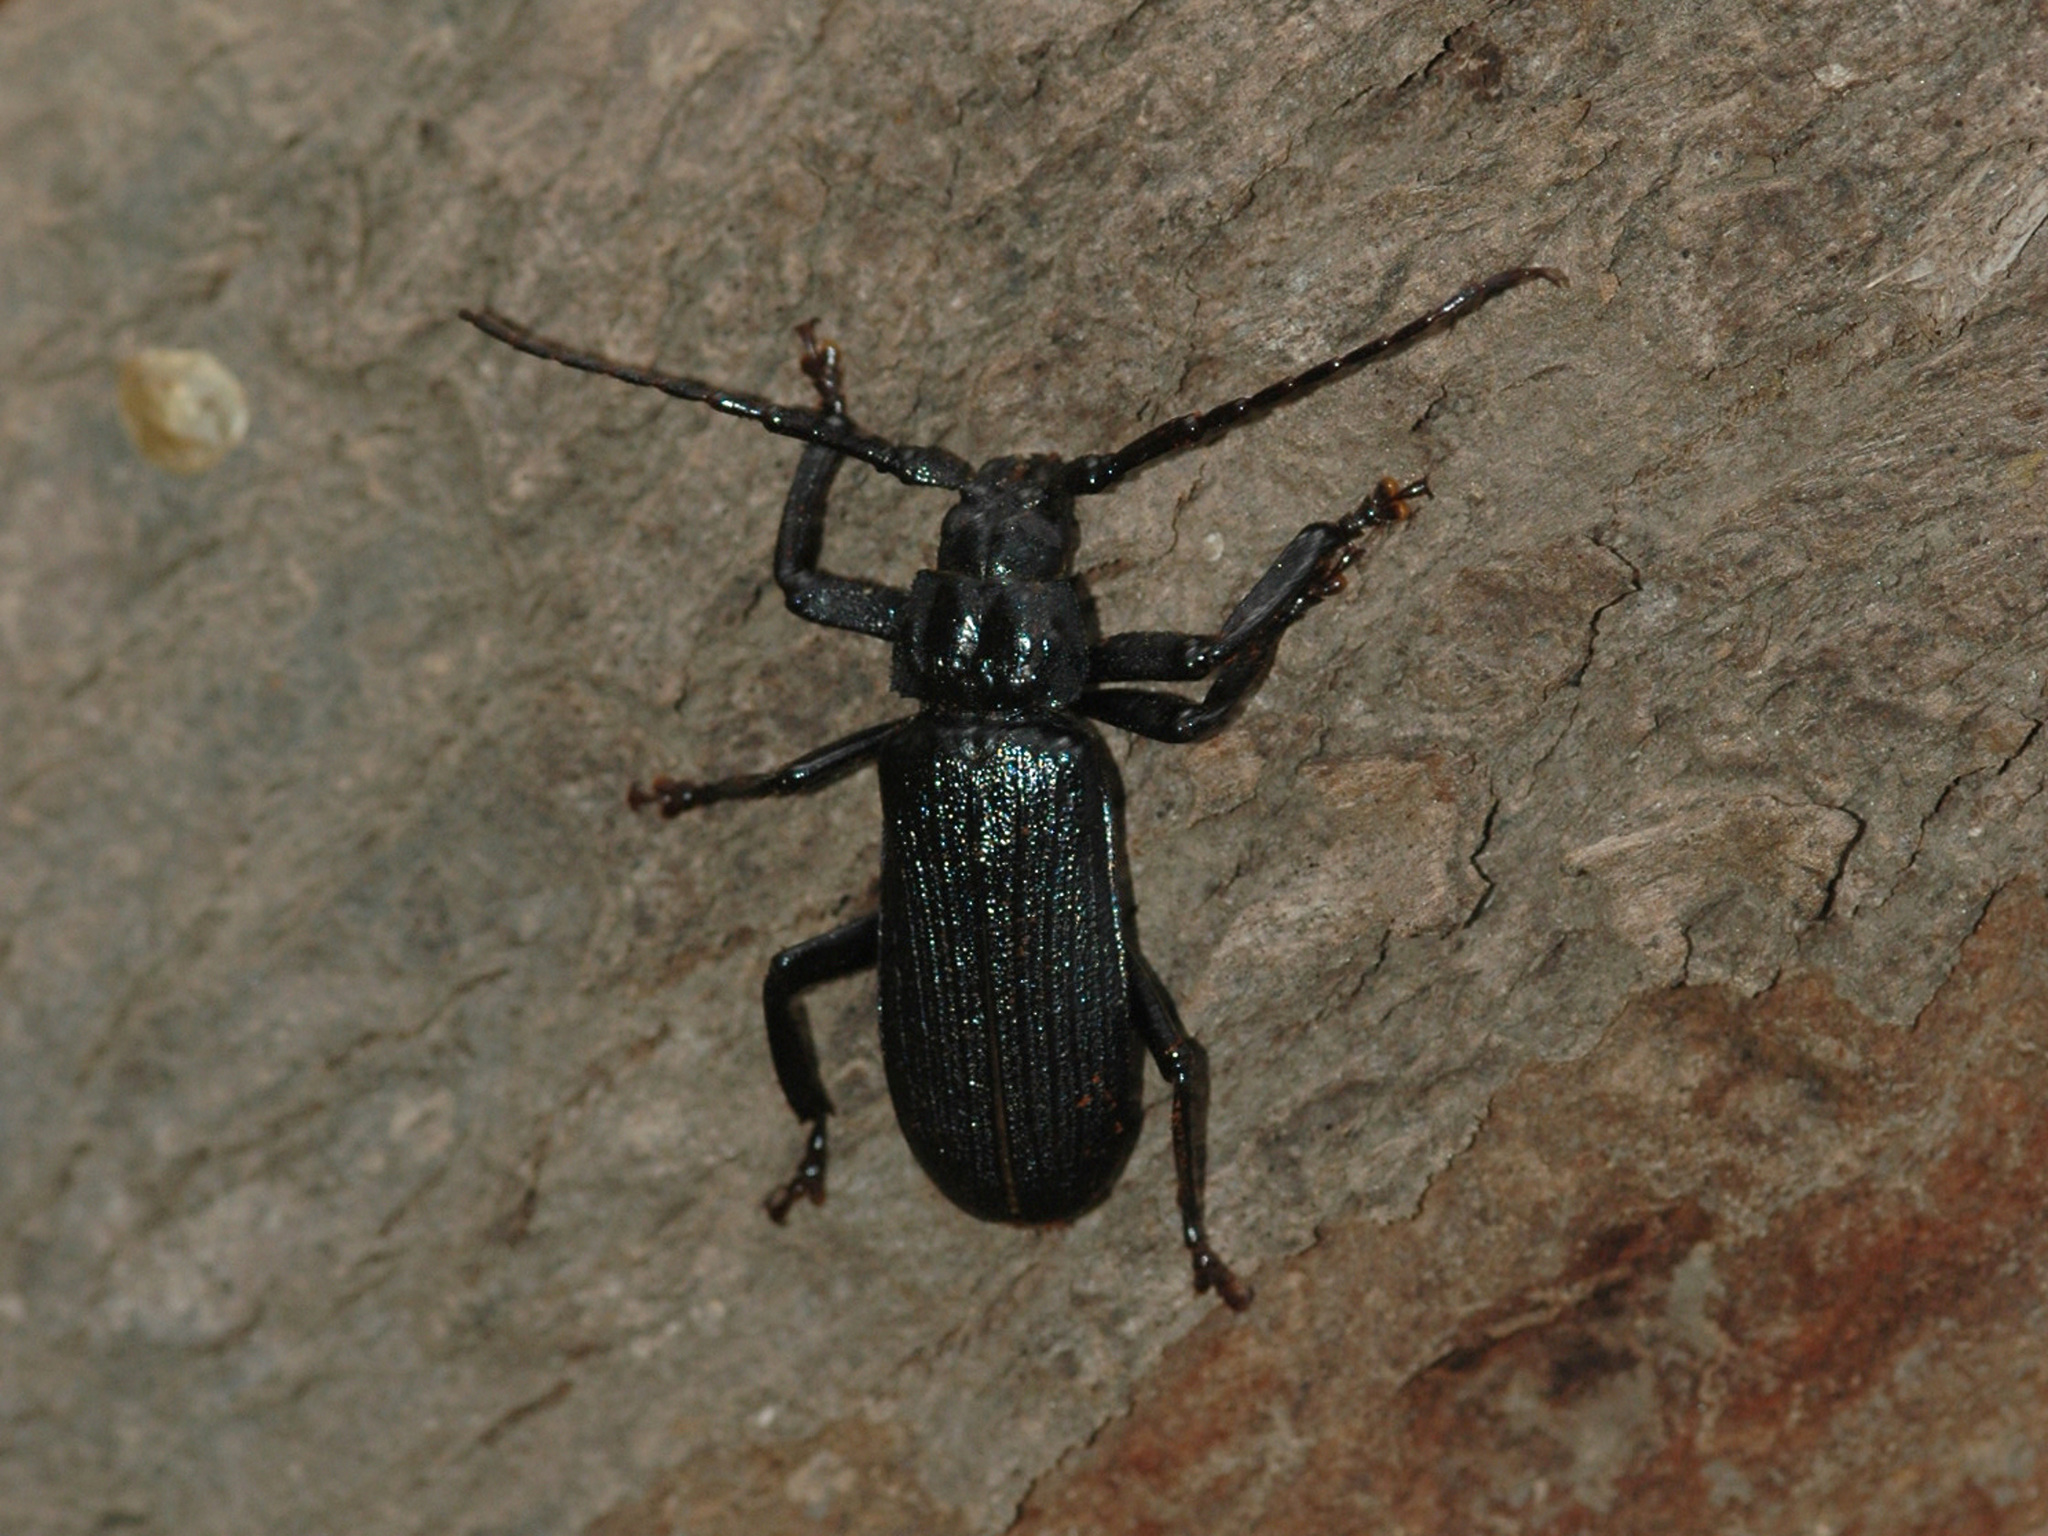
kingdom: Animalia
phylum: Arthropoda
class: Insecta
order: Coleoptera
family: Cerambycidae
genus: Aulacopus
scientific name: Aulacopus reticulatus
